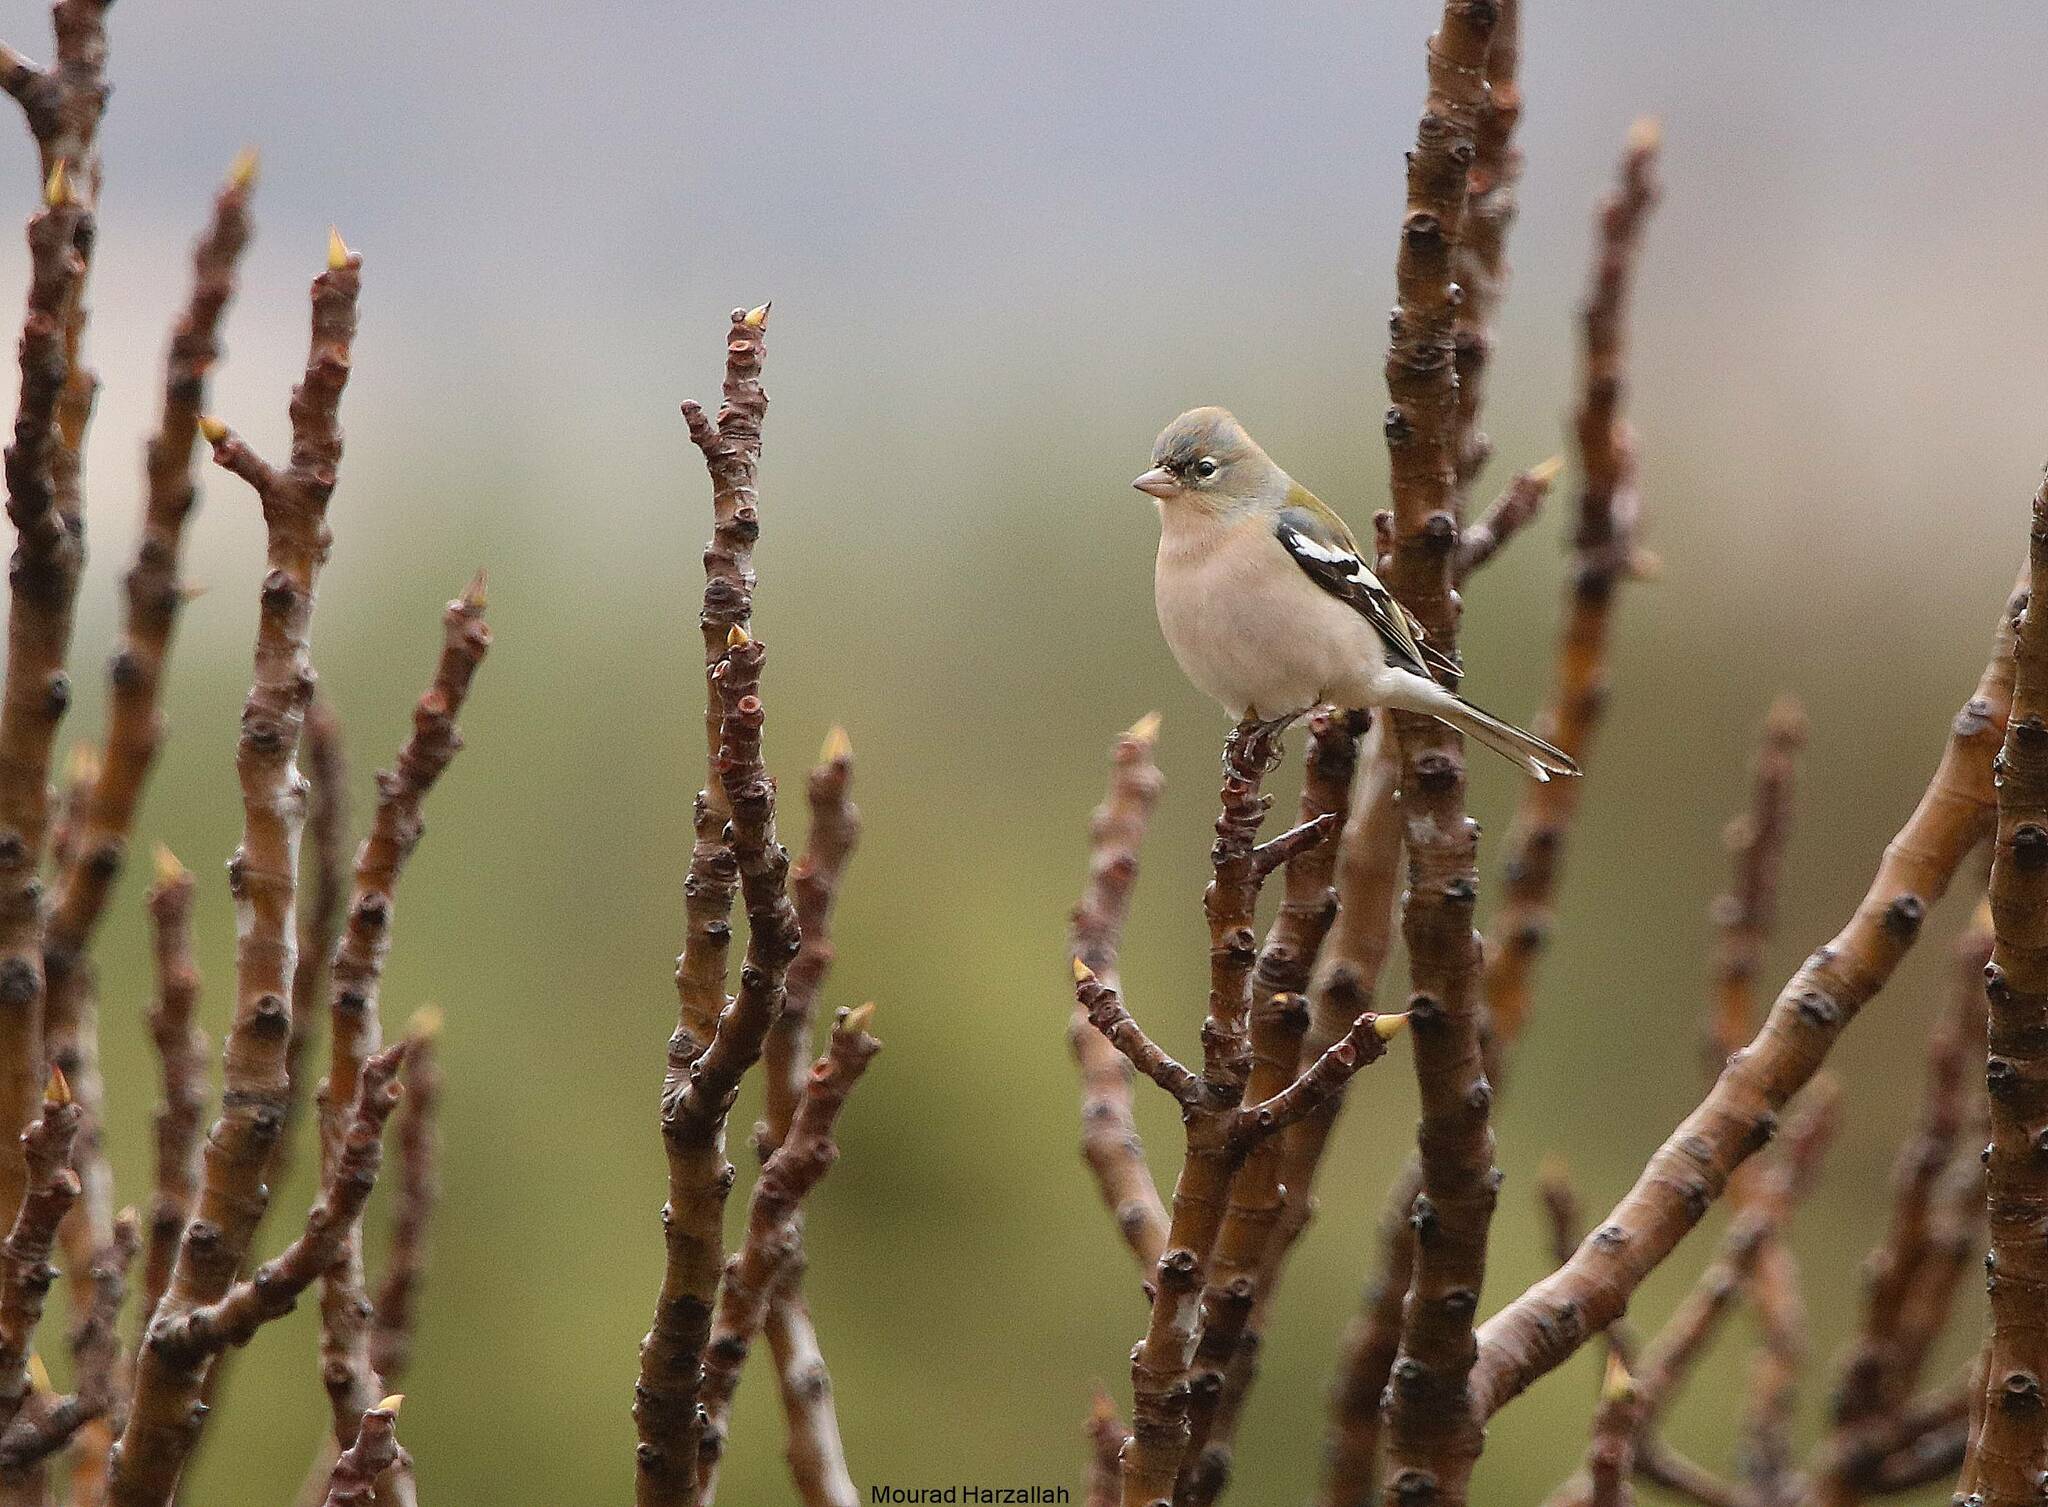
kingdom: Animalia
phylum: Chordata
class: Aves
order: Passeriformes
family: Fringillidae
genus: Fringilla
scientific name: Fringilla spodiogenys
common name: African chaffinch
